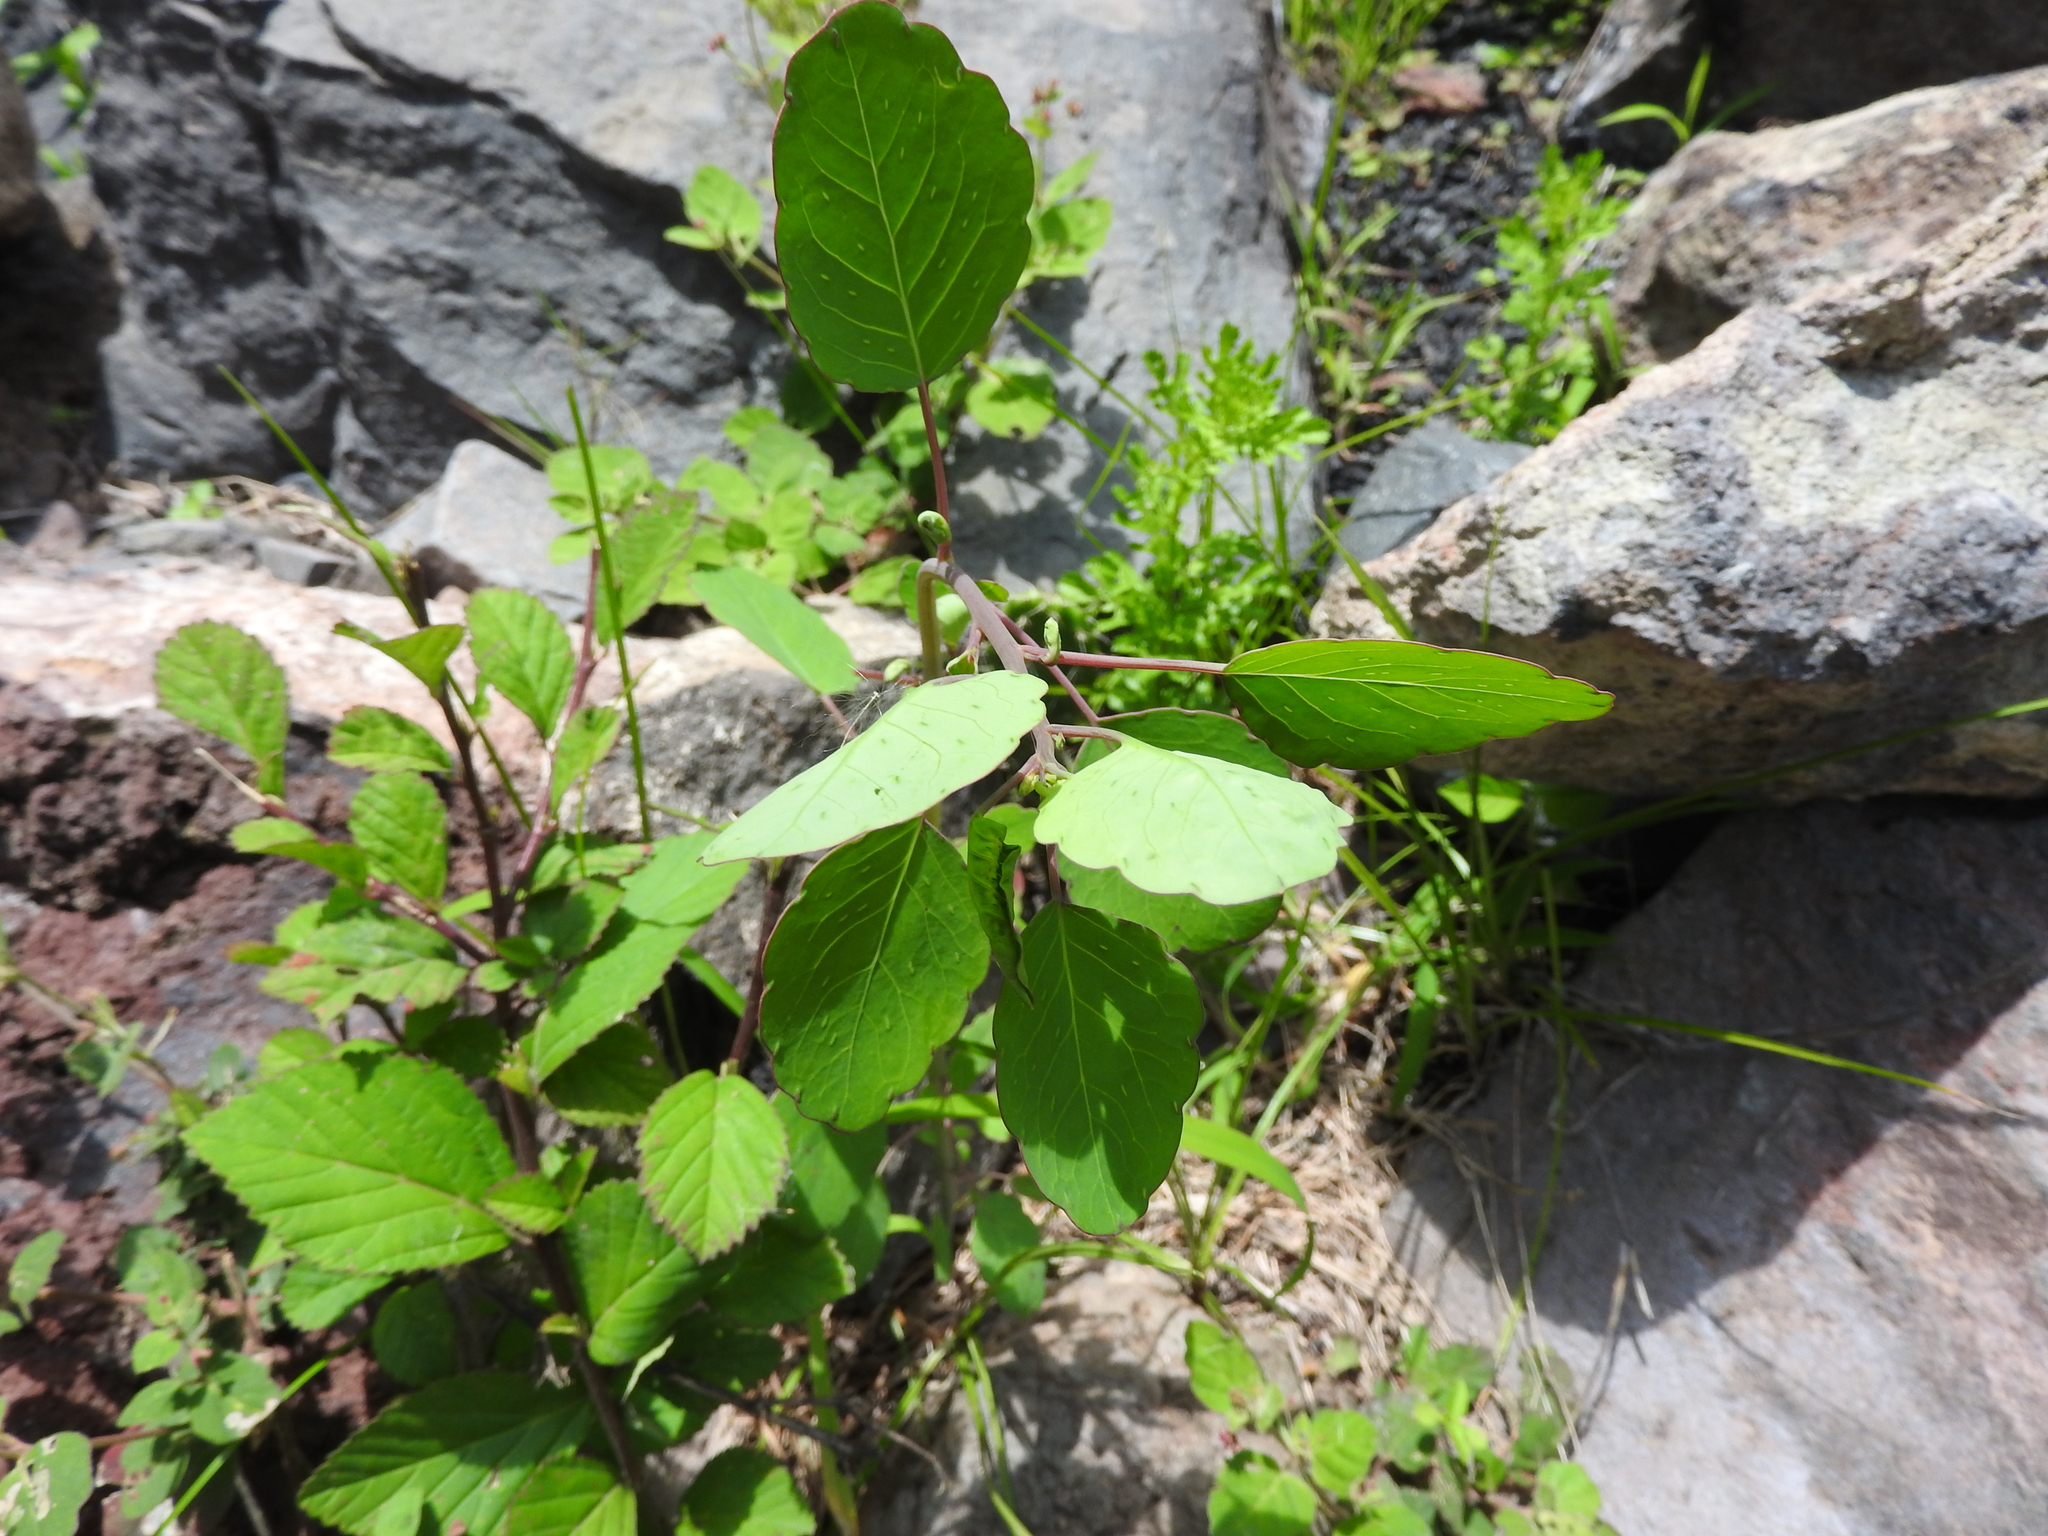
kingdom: Plantae
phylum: Tracheophyta
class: Magnoliopsida
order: Asterales
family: Asteraceae
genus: Porophyllum
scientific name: Porophyllum ruderale
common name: Yerba porosa
